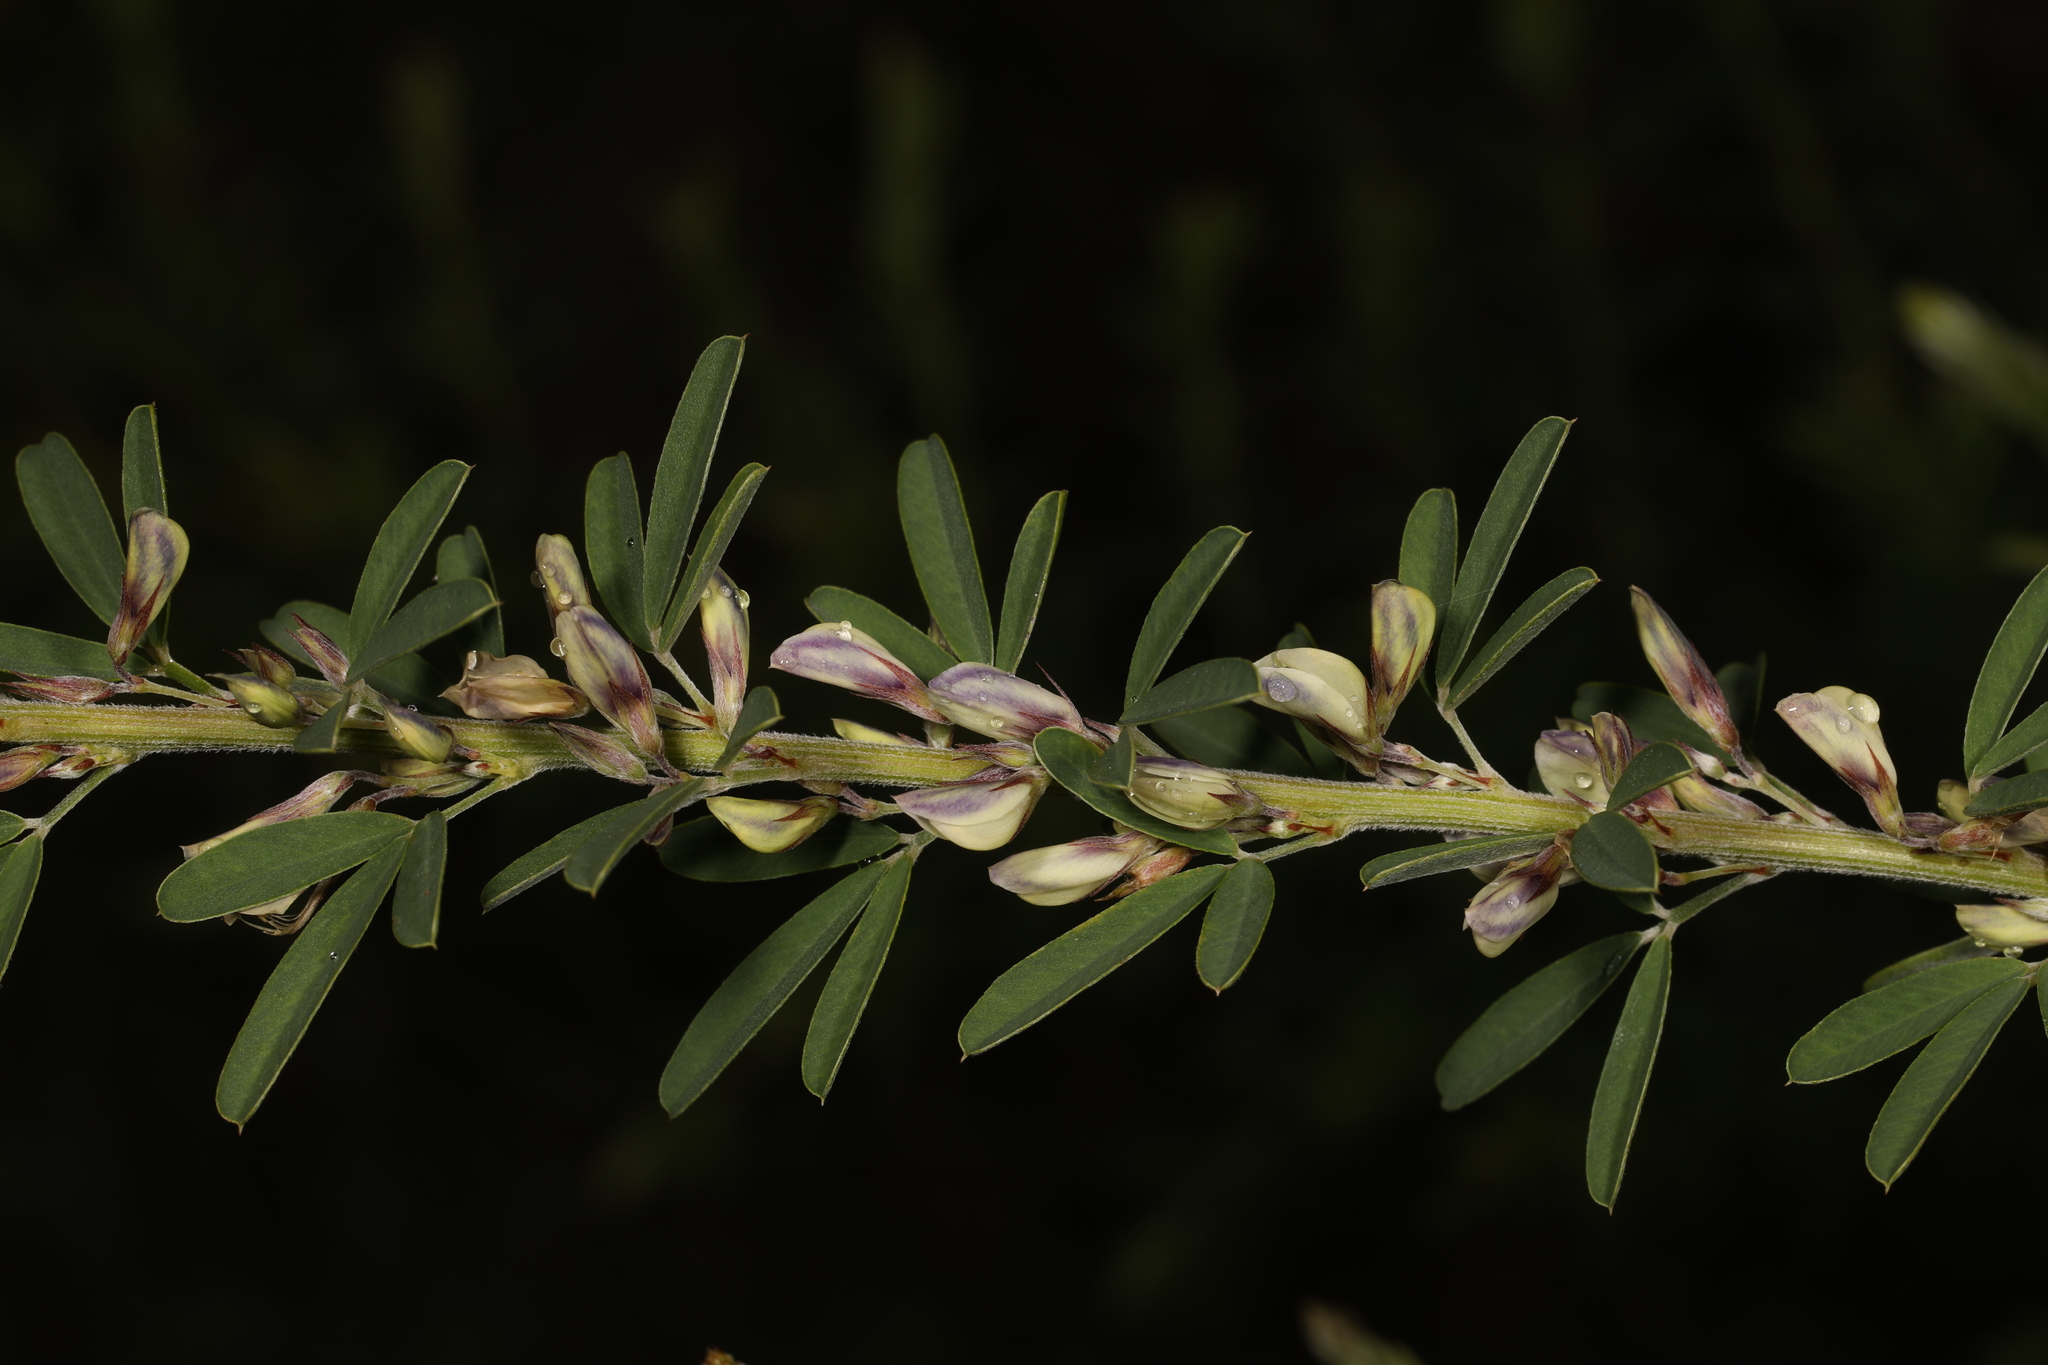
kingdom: Plantae
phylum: Tracheophyta
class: Magnoliopsida
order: Fabales
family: Fabaceae
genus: Lespedeza
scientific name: Lespedeza cuneata
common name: Chinese bush-clover
